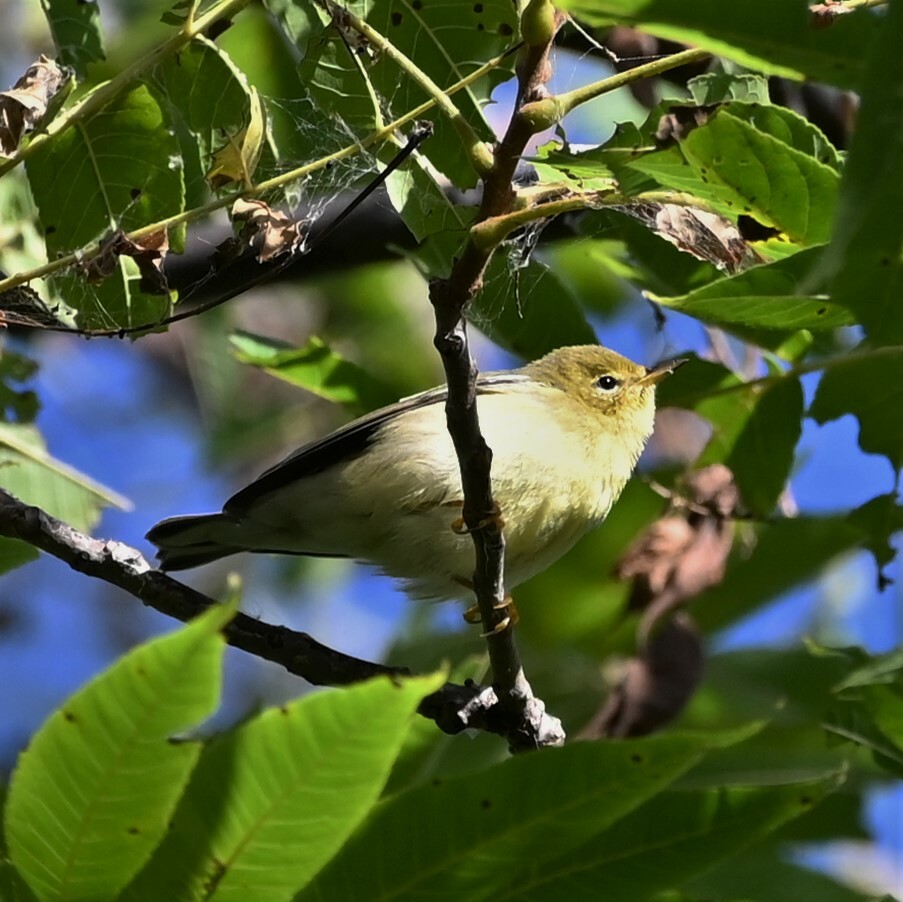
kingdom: Animalia
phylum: Chordata
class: Aves
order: Passeriformes
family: Parulidae
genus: Setophaga
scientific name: Setophaga striata
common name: Blackpoll warbler
